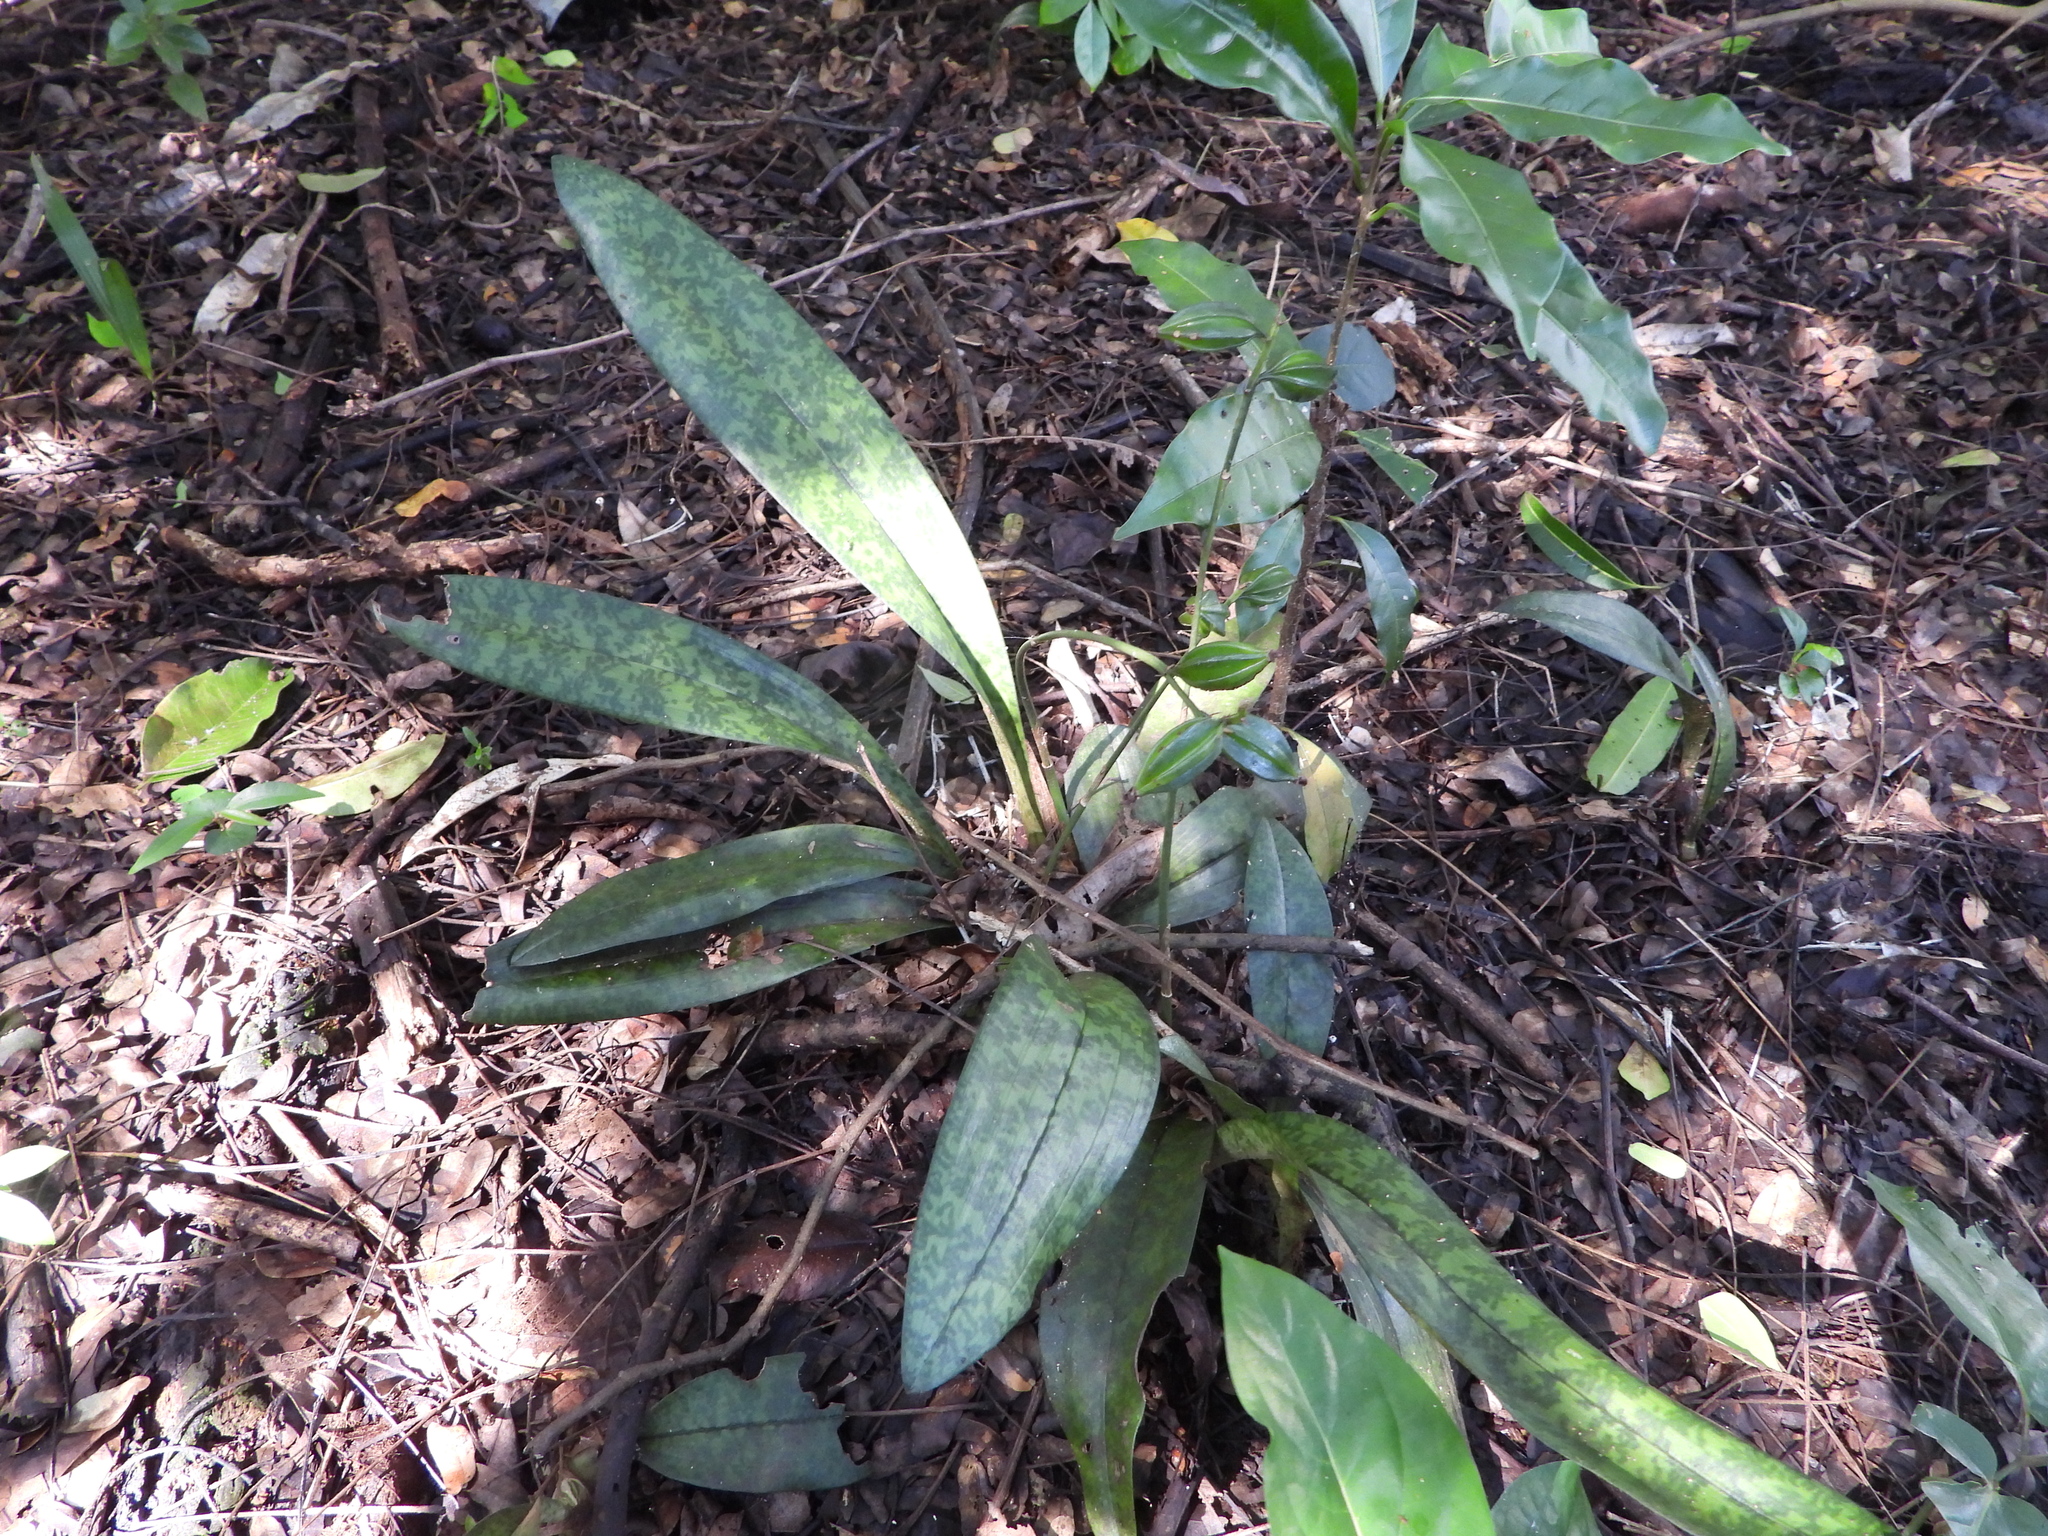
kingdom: Plantae
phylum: Tracheophyta
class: Liliopsida
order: Asparagales
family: Orchidaceae
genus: Eulophia
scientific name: Eulophia maculata
